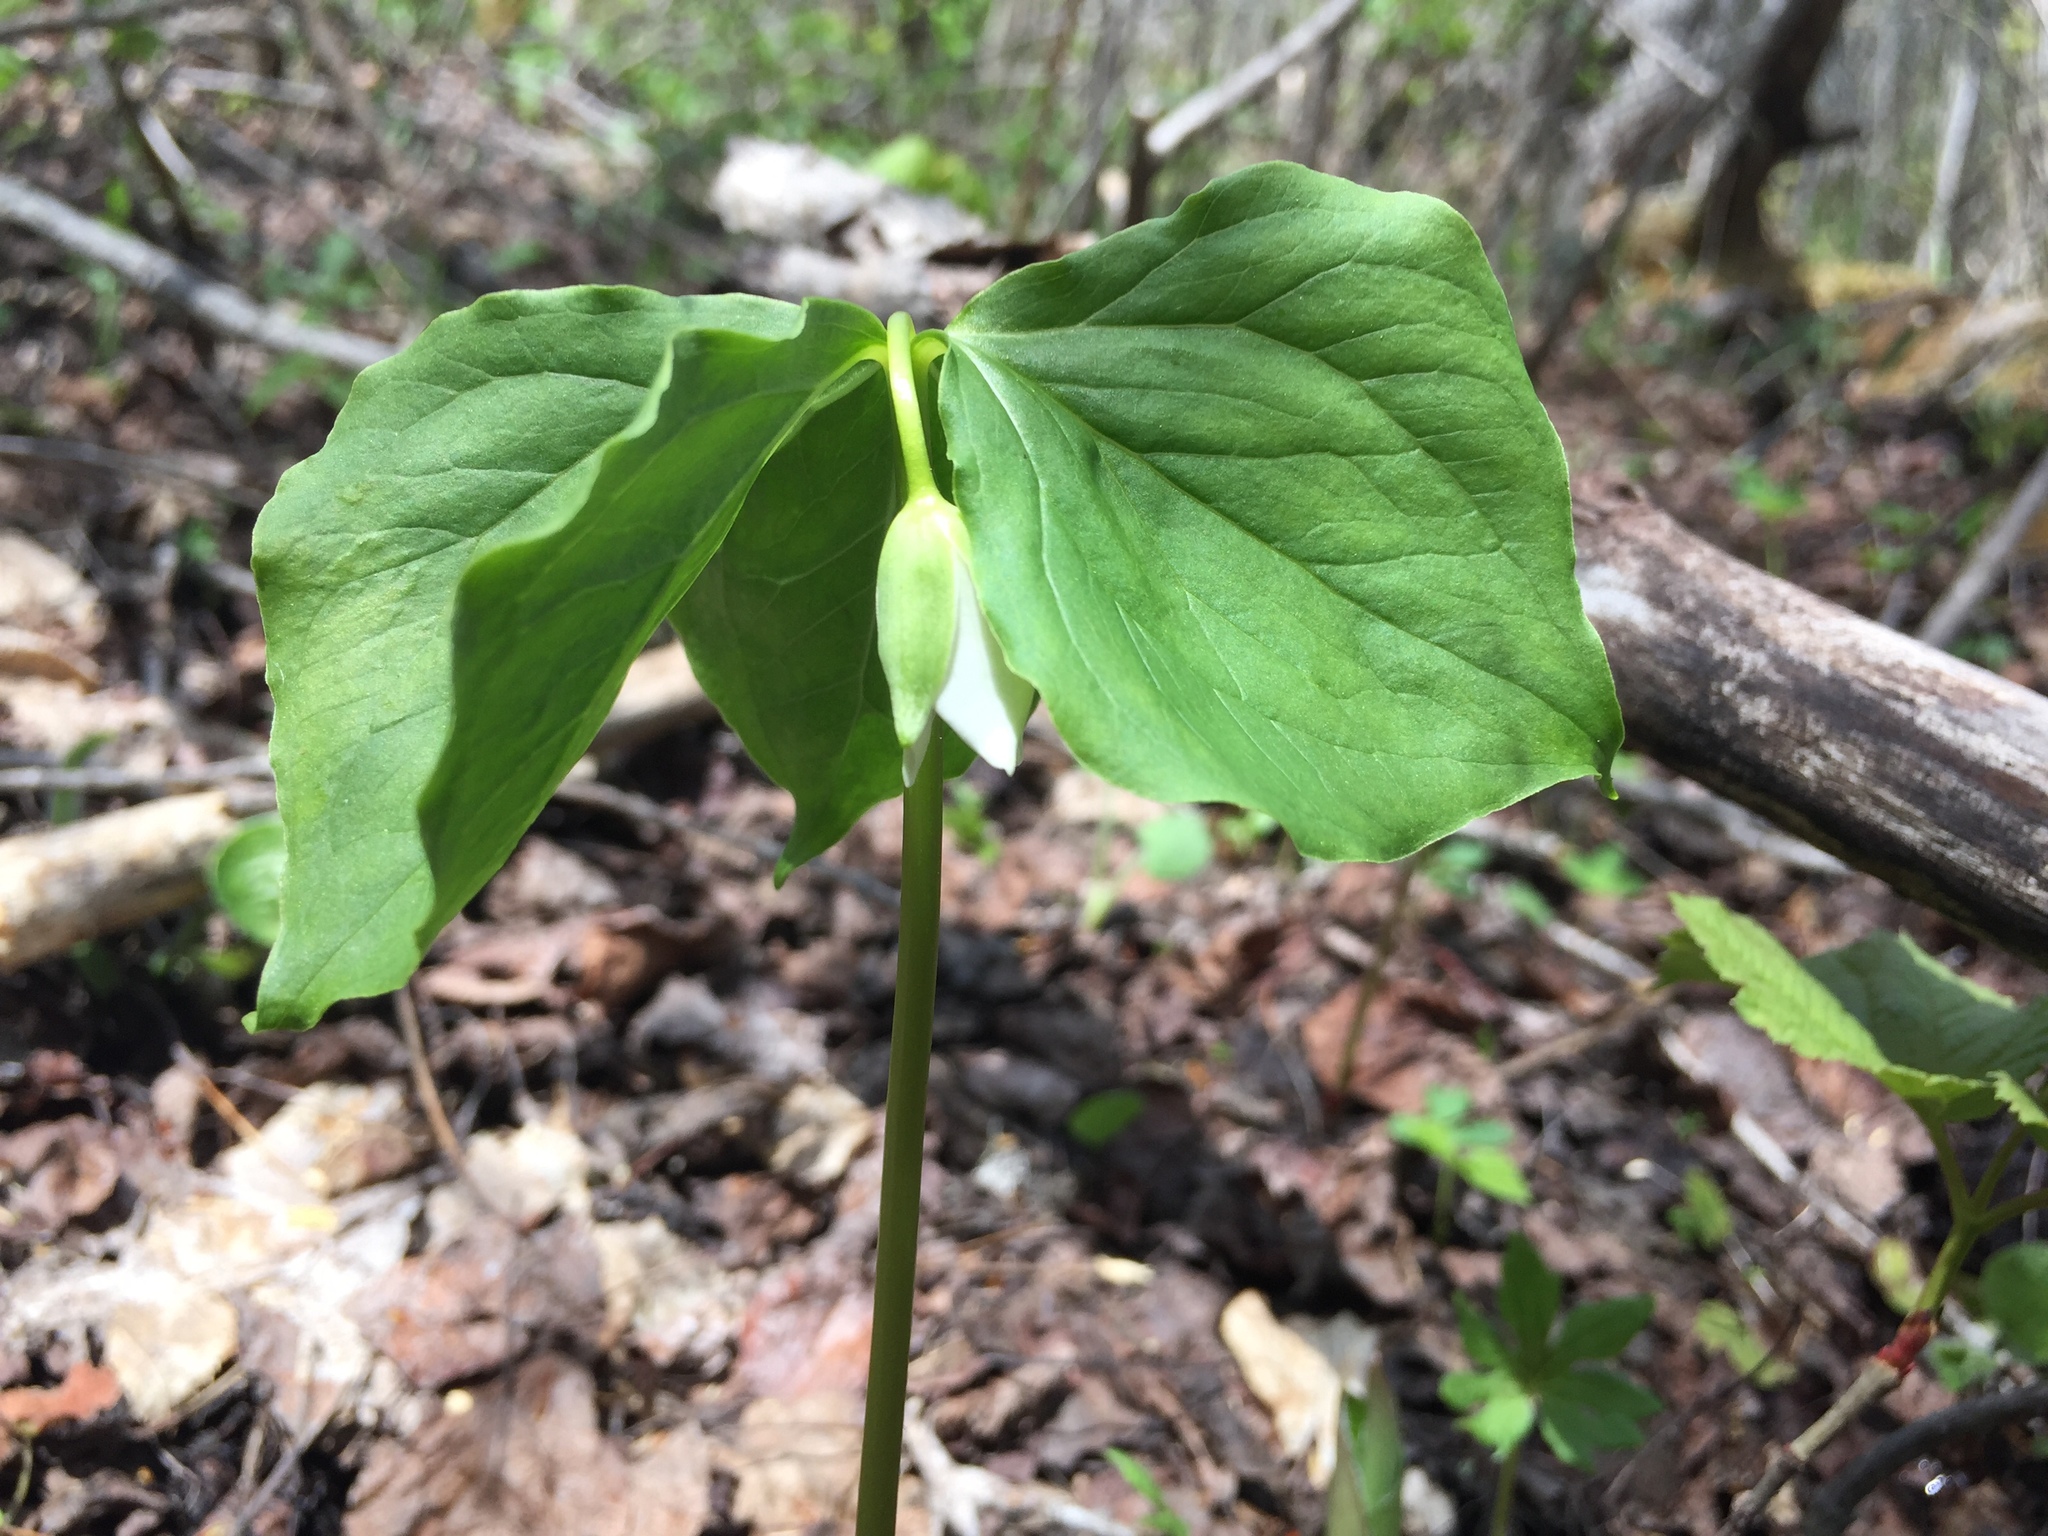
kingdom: Plantae
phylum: Tracheophyta
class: Liliopsida
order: Liliales
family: Melanthiaceae
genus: Trillium
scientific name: Trillium cernuum
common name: Nodding trillium
